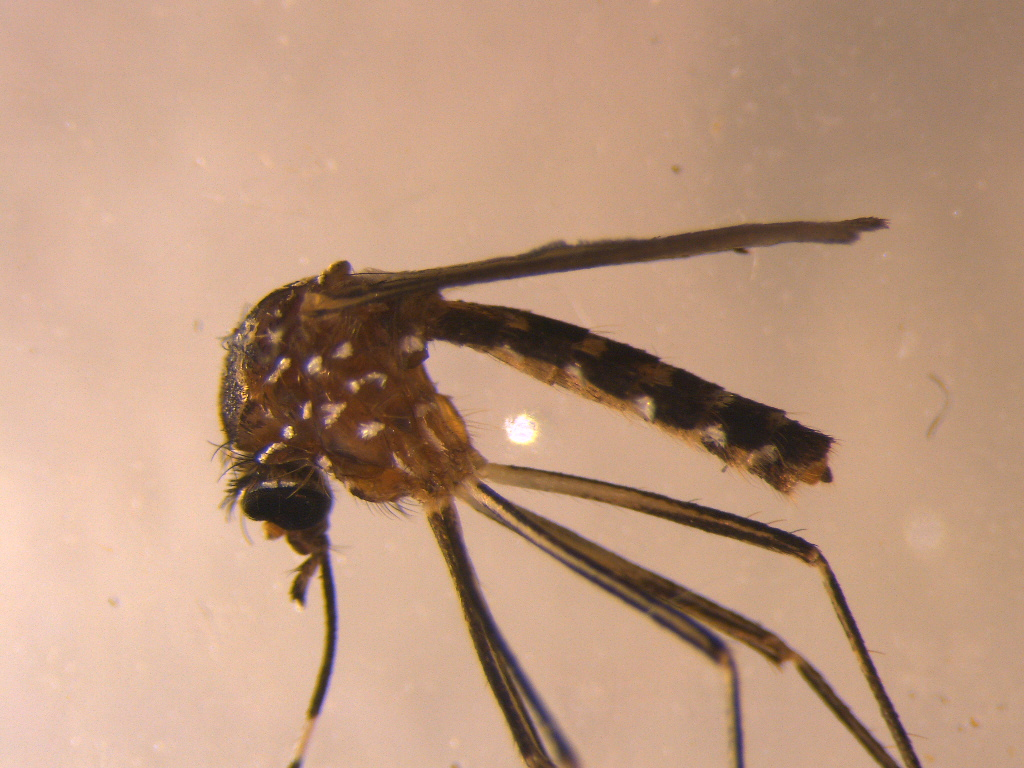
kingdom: Animalia
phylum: Arthropoda
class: Insecta
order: Diptera
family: Culicidae
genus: Aedes
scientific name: Aedes notoscriptus
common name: Australian backyard mosquito
